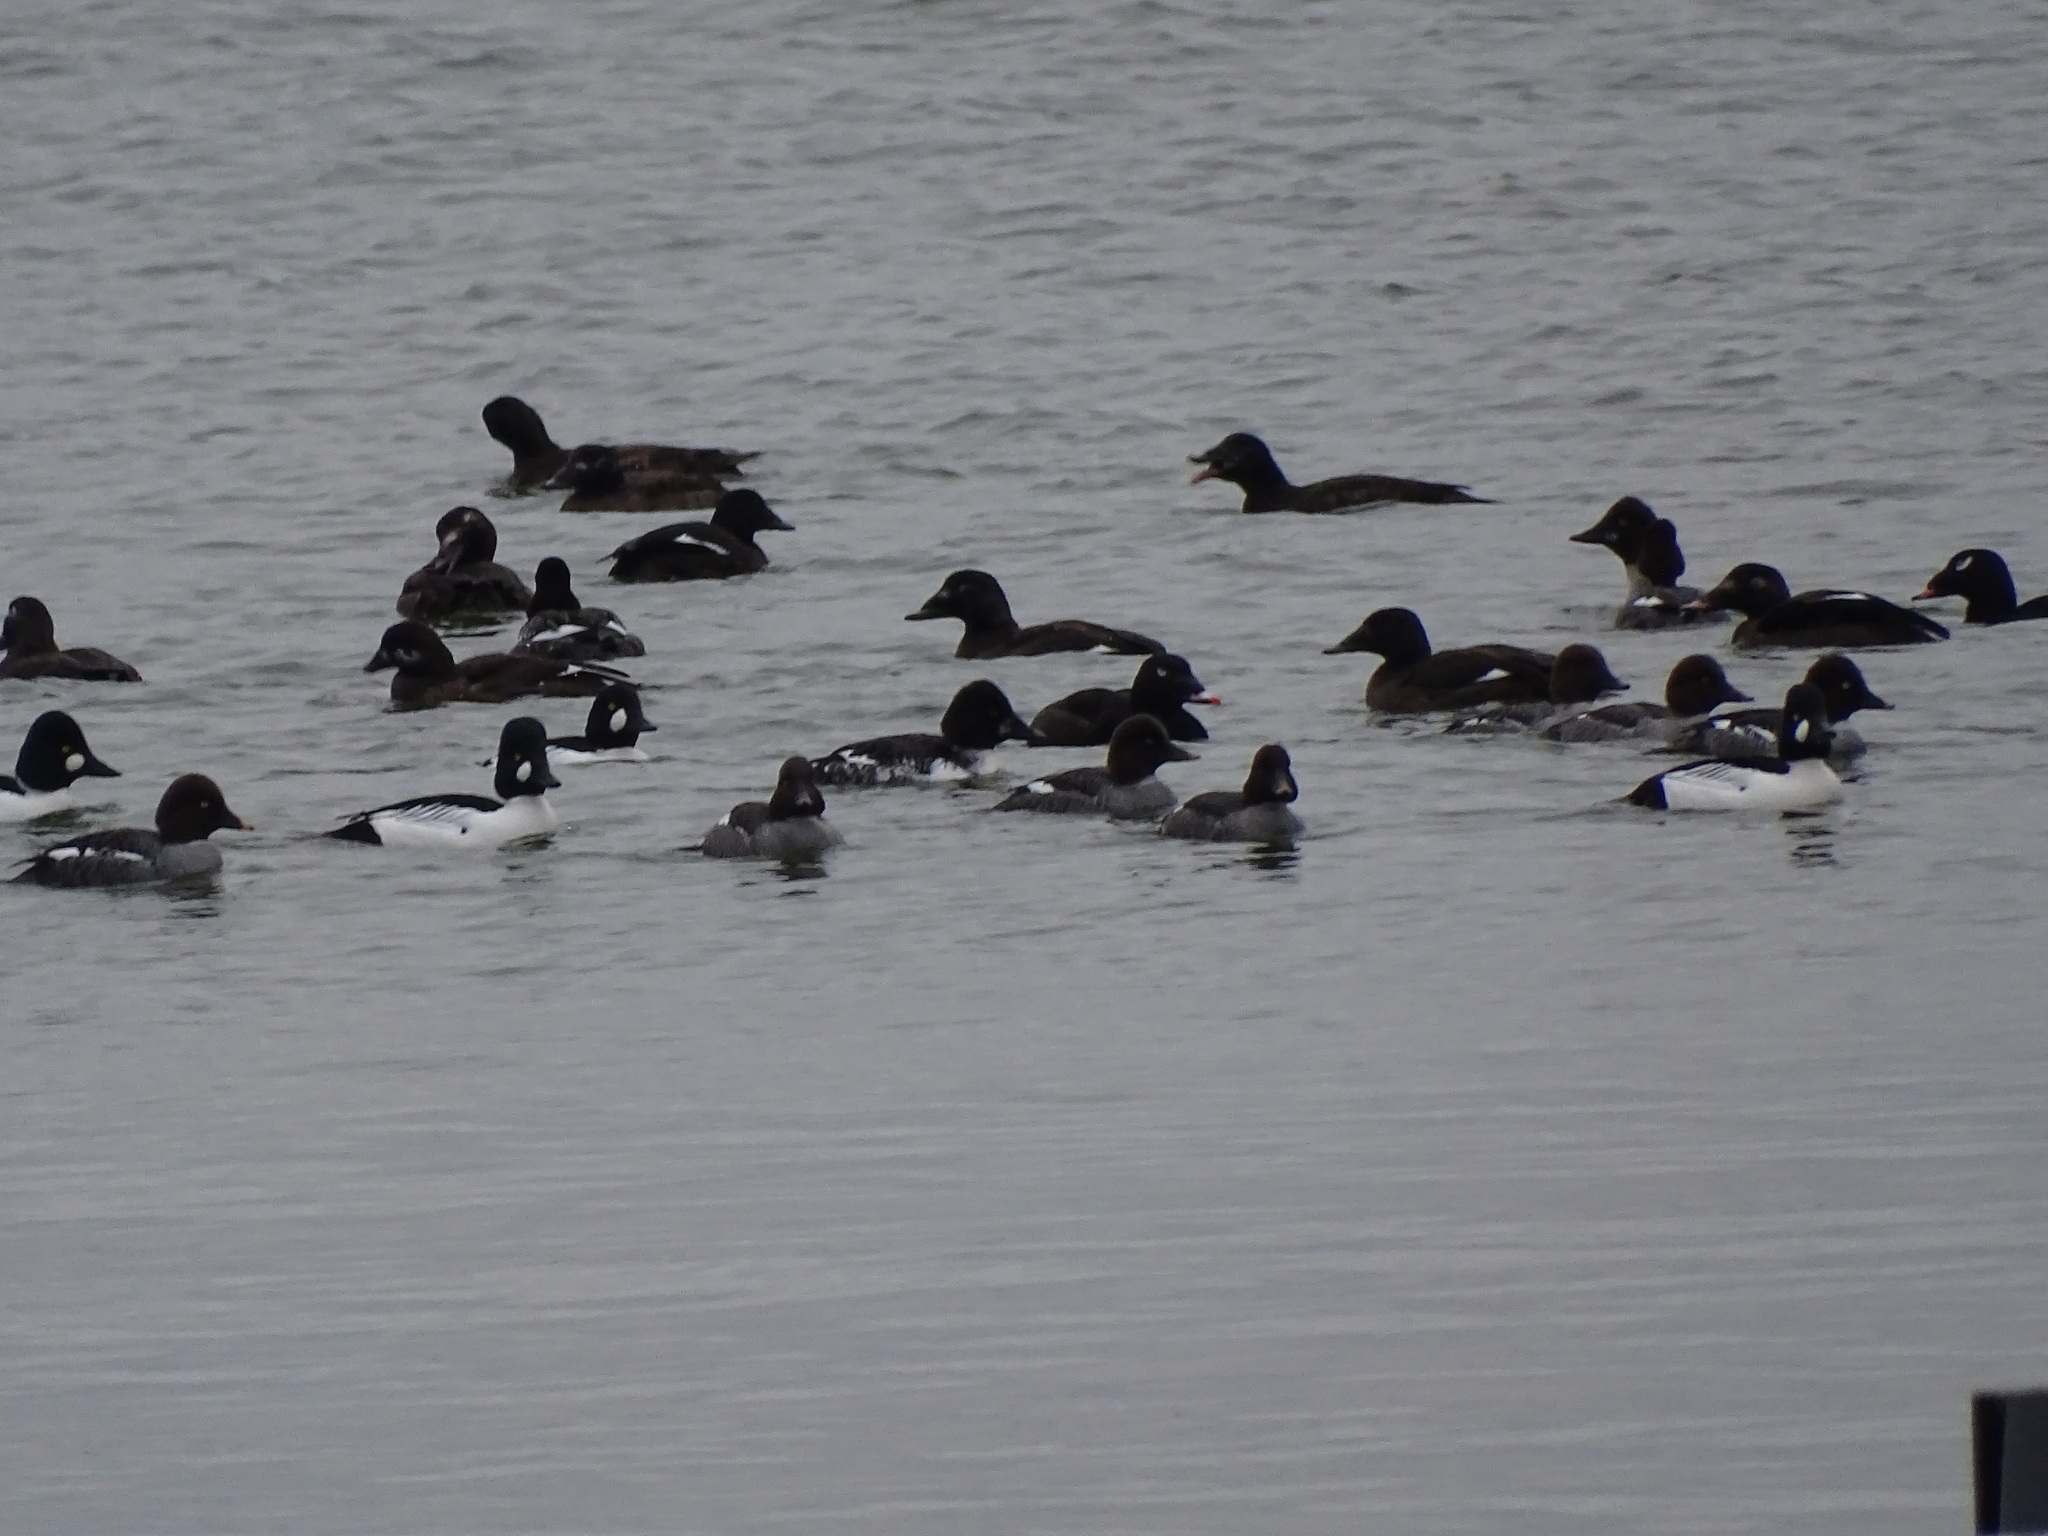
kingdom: Animalia
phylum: Chordata
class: Aves
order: Anseriformes
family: Anatidae
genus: Bucephala
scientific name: Bucephala clangula
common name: Common goldeneye
